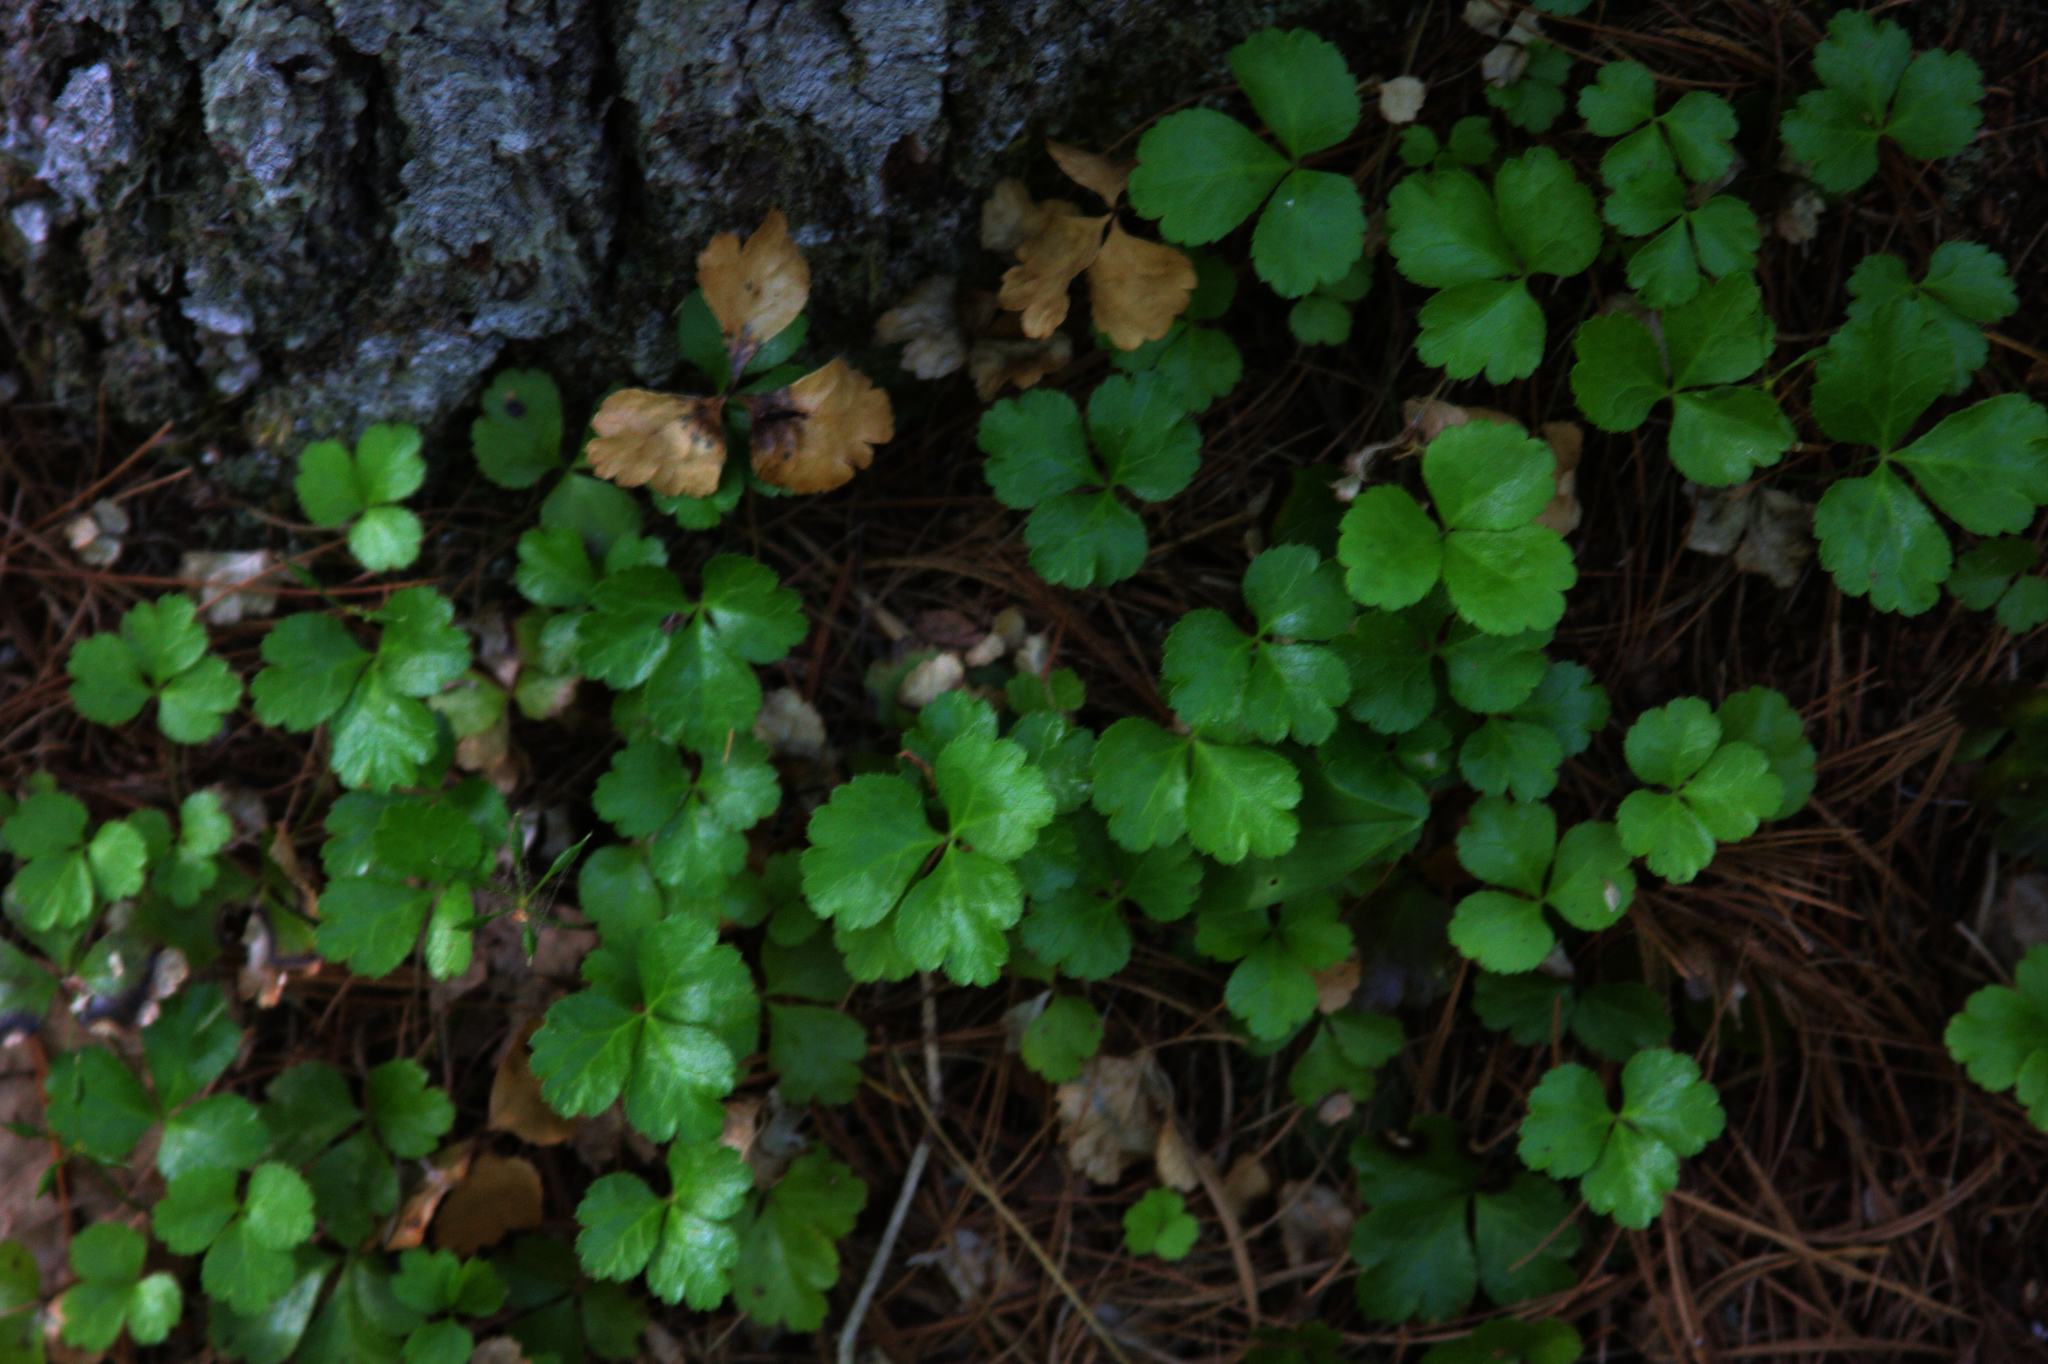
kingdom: Plantae
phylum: Tracheophyta
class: Magnoliopsida
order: Ranunculales
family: Ranunculaceae
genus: Coptis
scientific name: Coptis trifolia
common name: Canker-root
